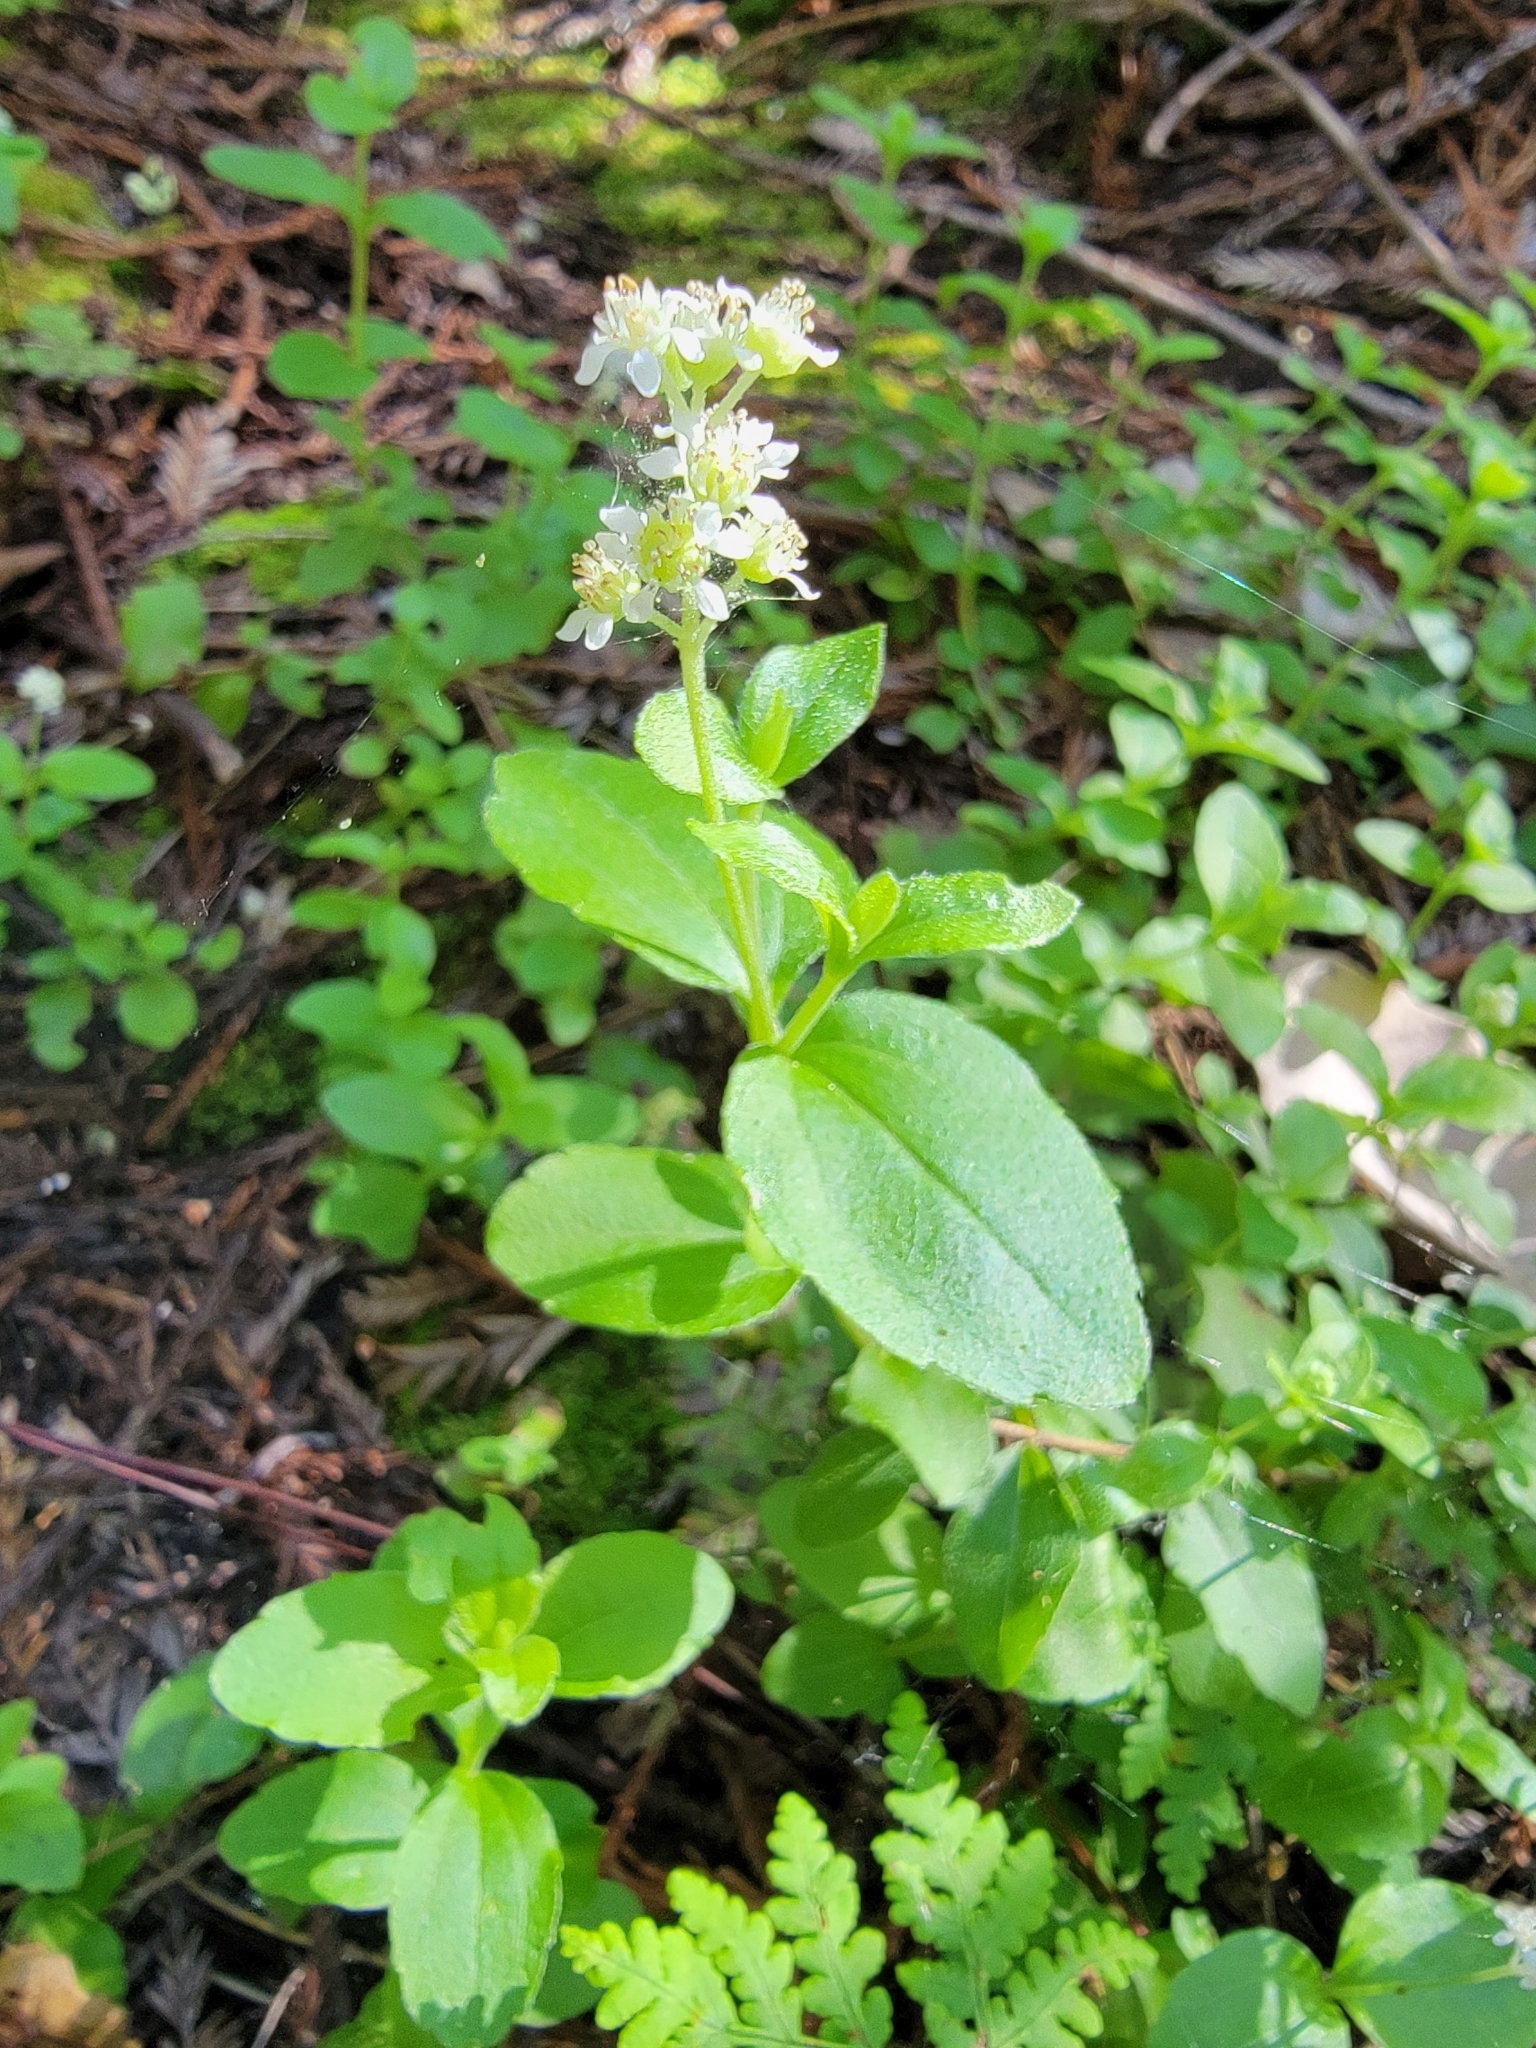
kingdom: Plantae
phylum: Tracheophyta
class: Magnoliopsida
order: Cornales
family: Hydrangeaceae
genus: Whipplea
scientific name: Whipplea modesta
